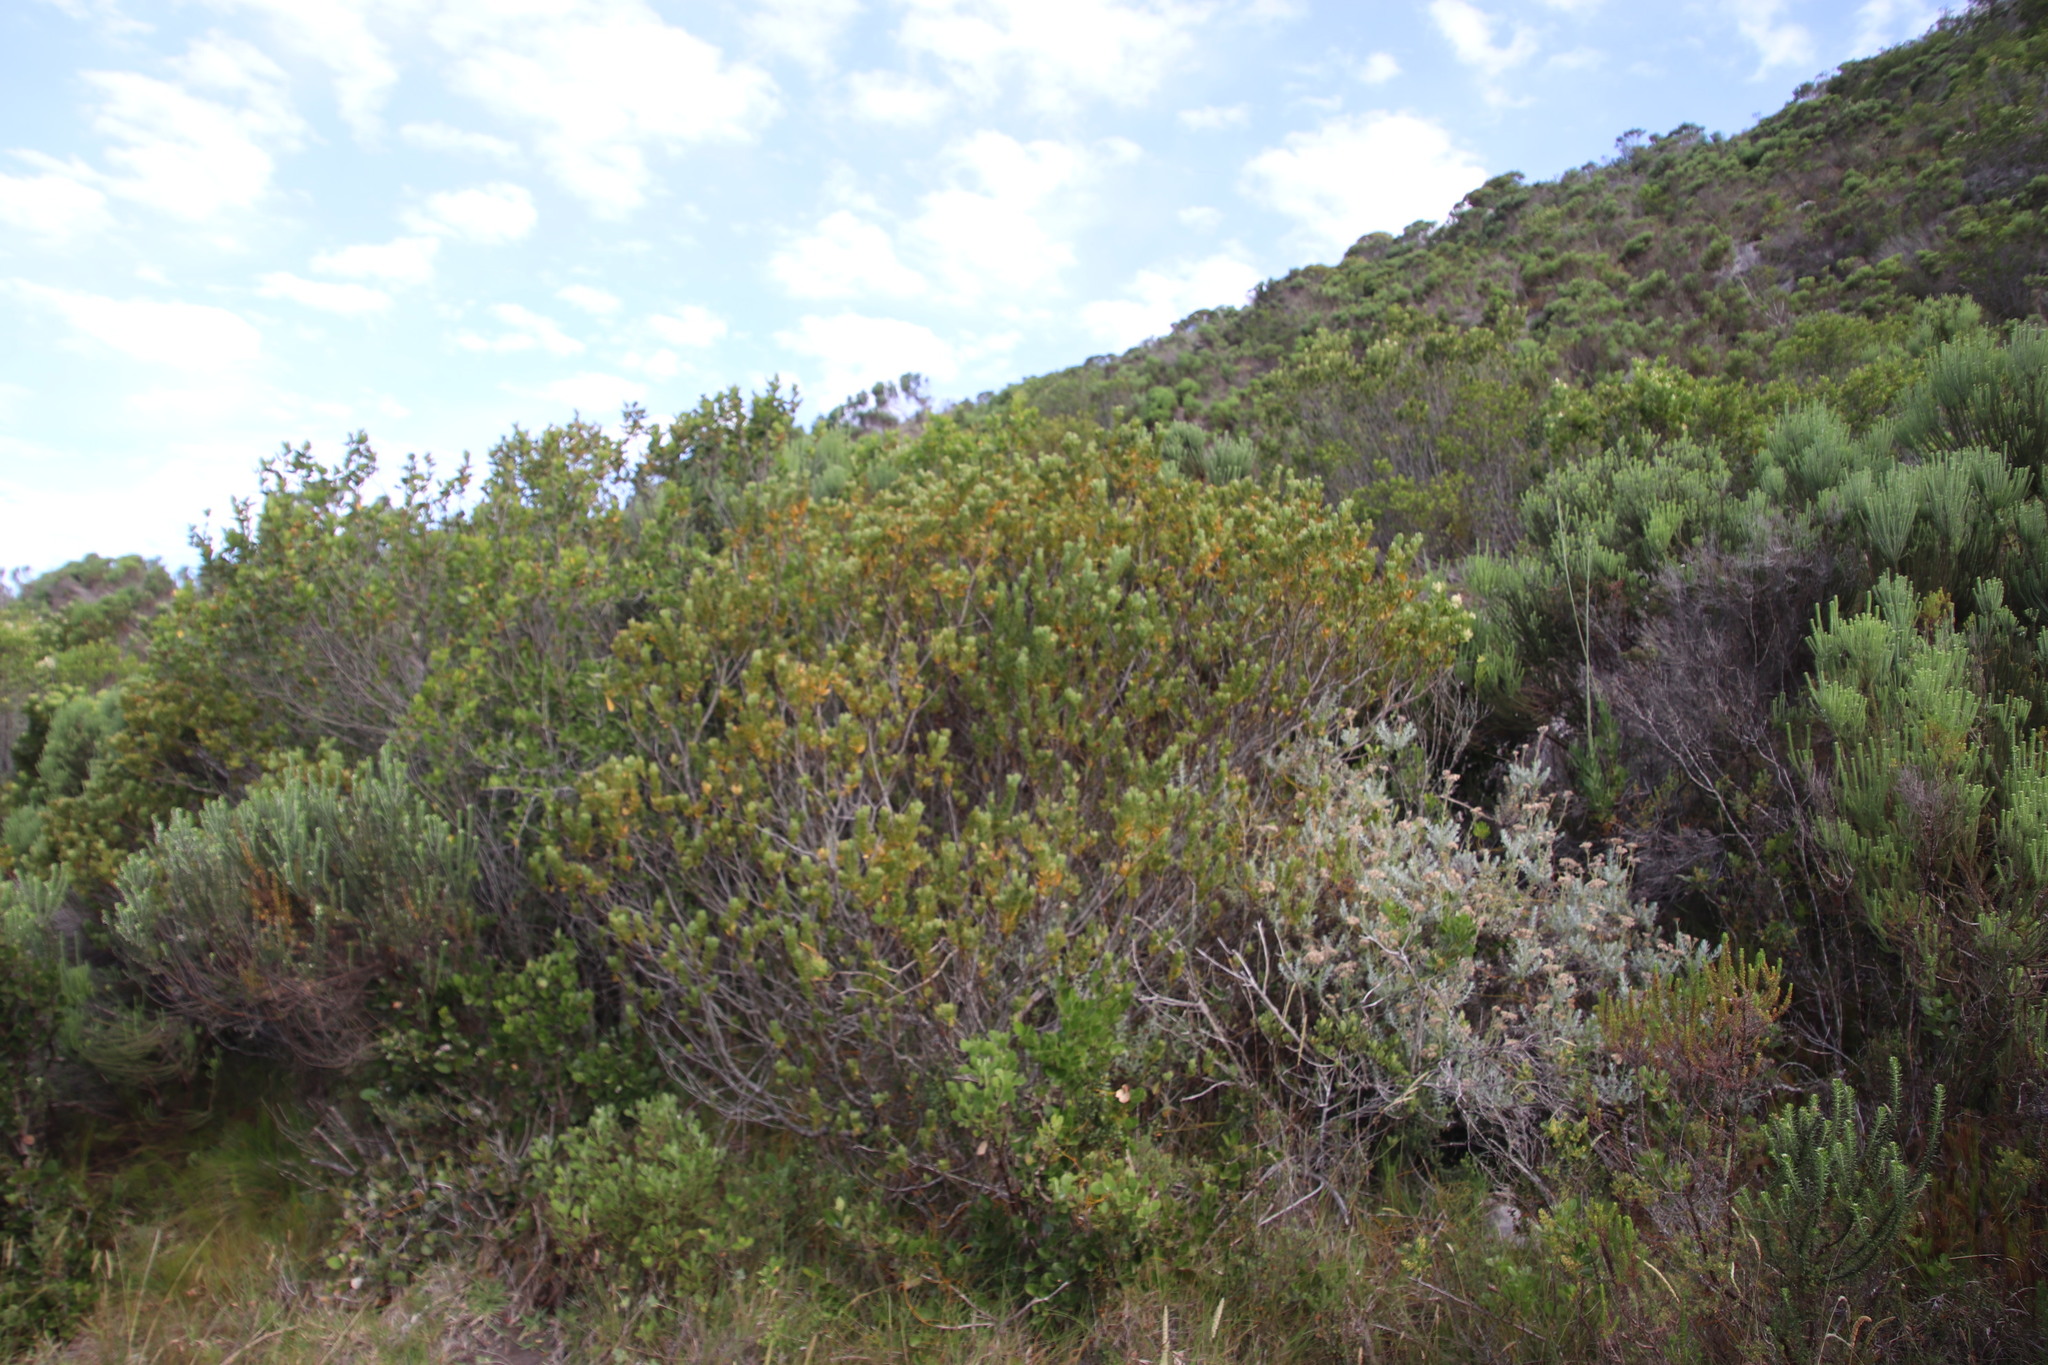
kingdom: Plantae
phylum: Tracheophyta
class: Magnoliopsida
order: Santalales
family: Santalaceae
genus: Osyris
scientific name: Osyris compressa
